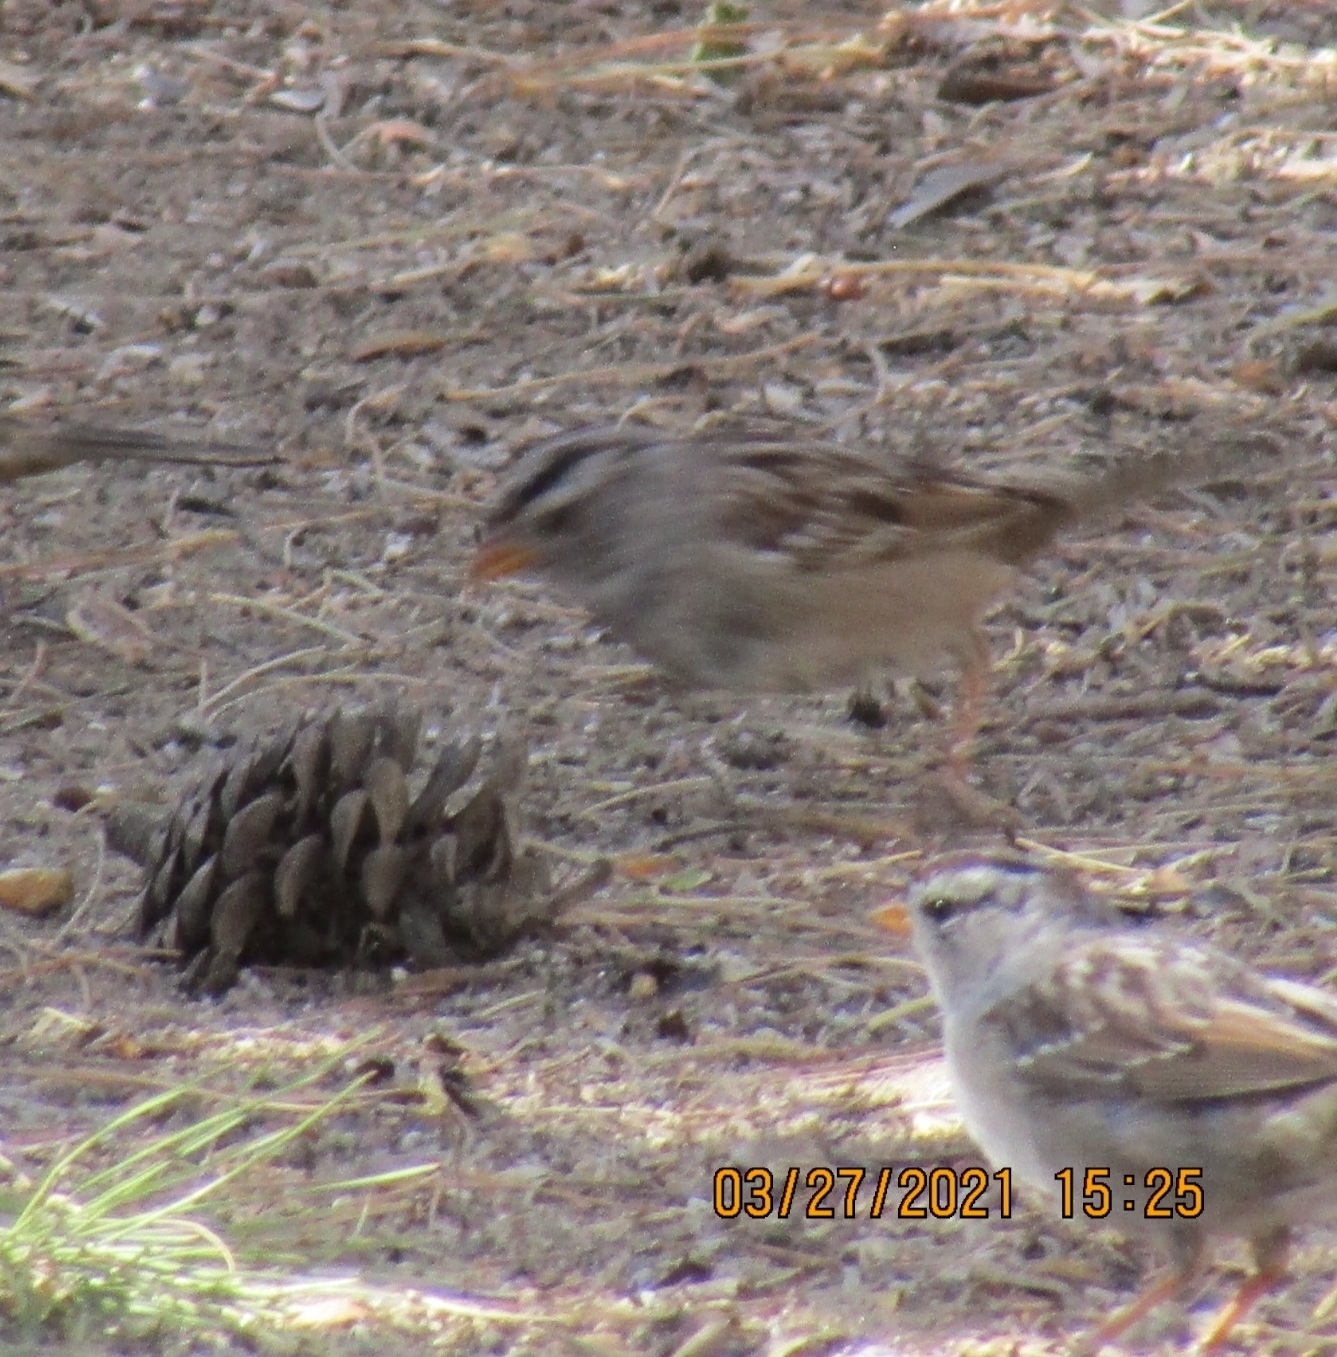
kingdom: Animalia
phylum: Chordata
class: Aves
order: Passeriformes
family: Passerellidae
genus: Zonotrichia
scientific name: Zonotrichia leucophrys
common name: White-crowned sparrow
